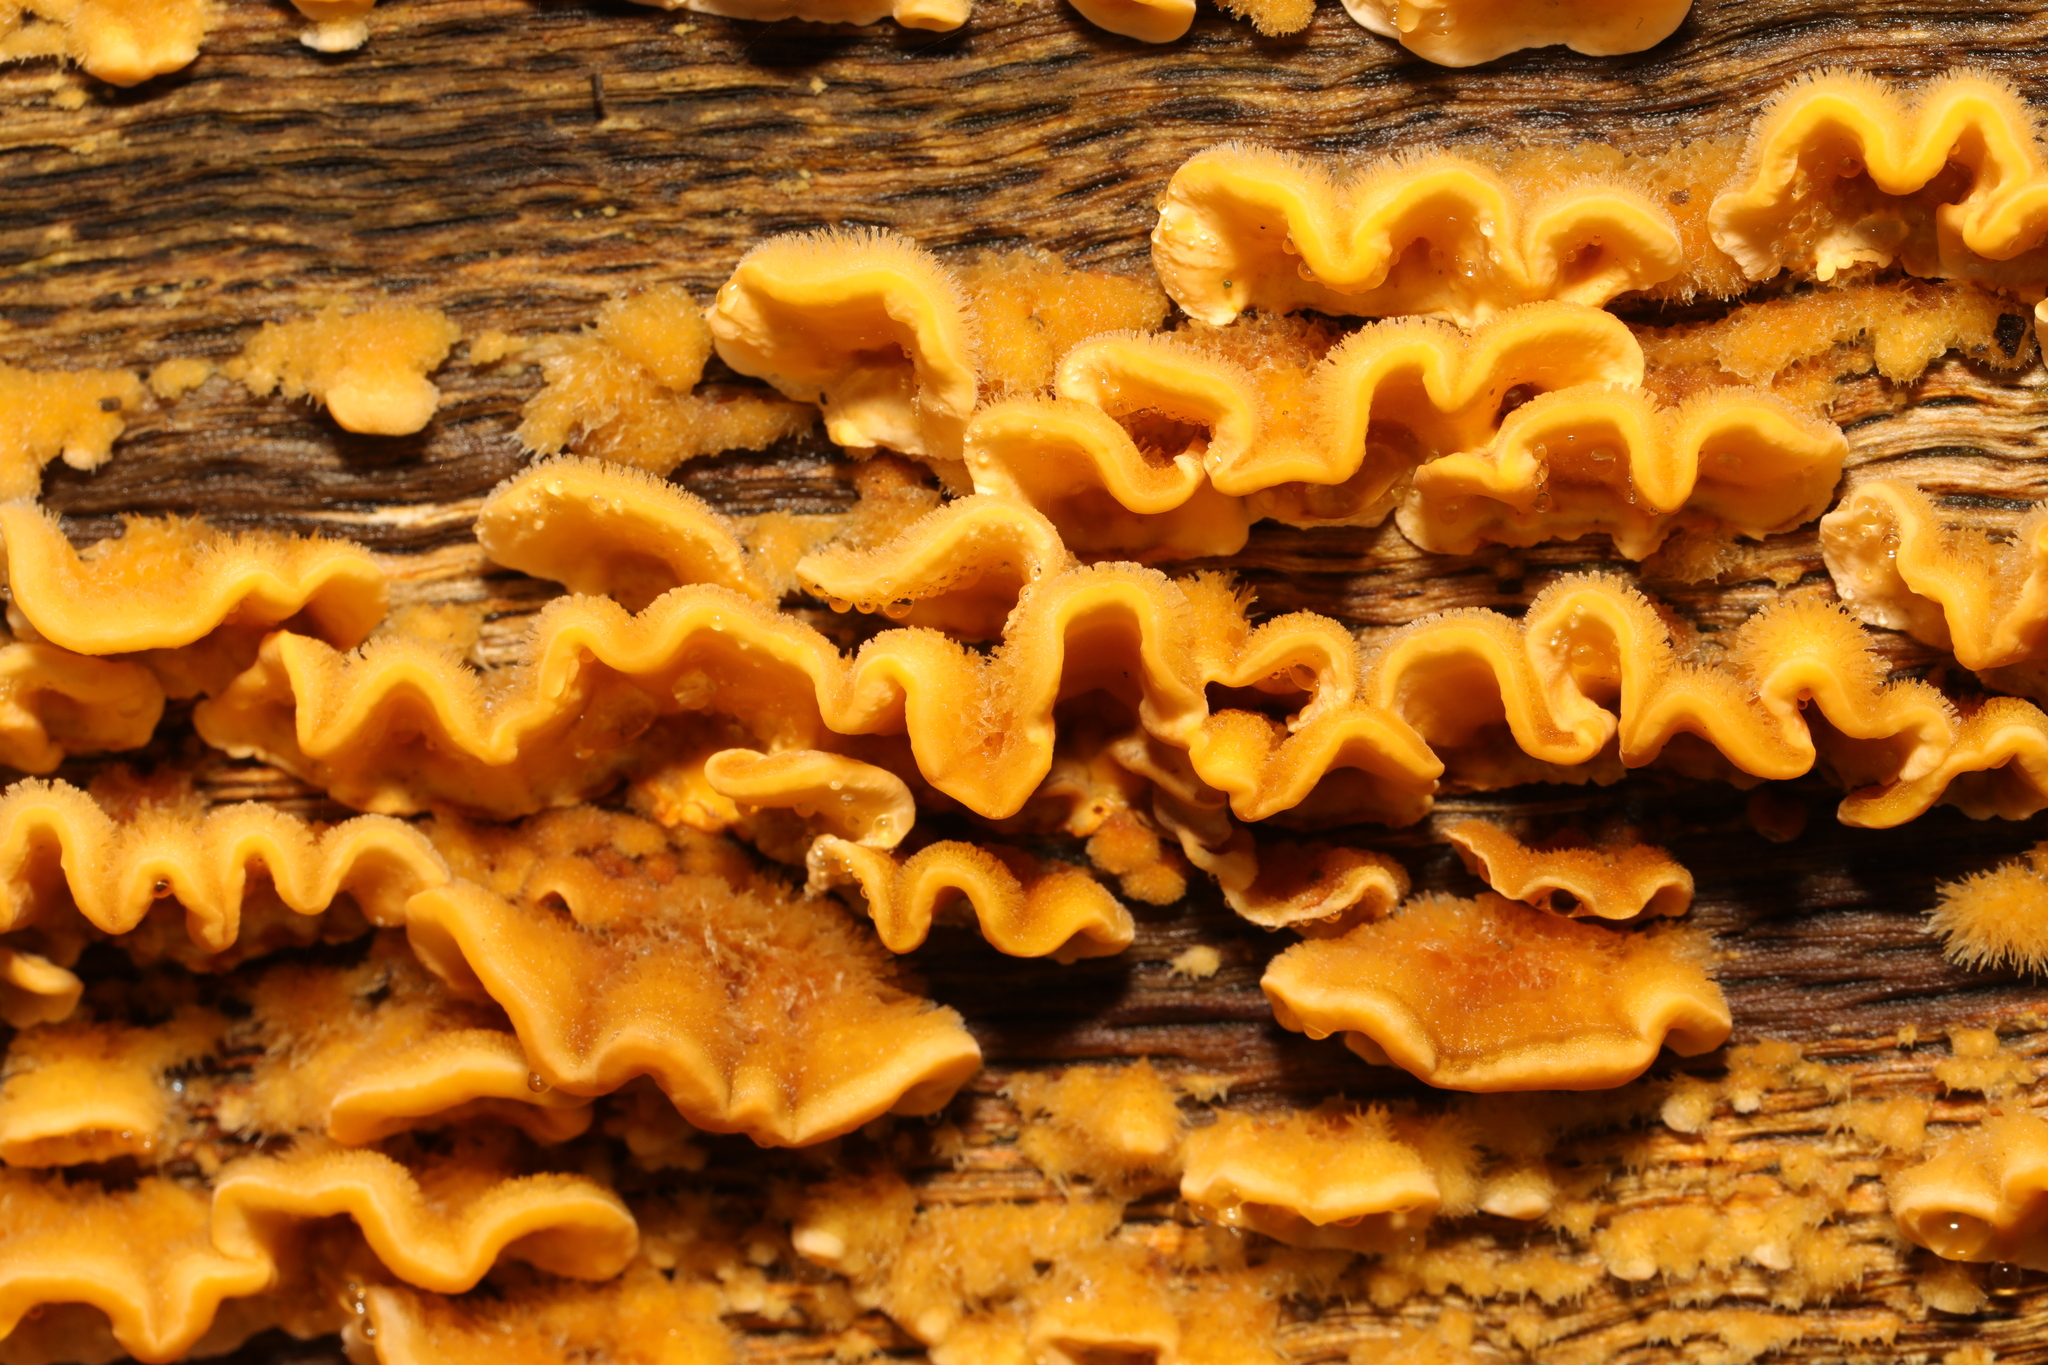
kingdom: Fungi
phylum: Basidiomycota
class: Agaricomycetes
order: Russulales
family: Stereaceae
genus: Stereum
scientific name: Stereum hirsutum
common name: Hairy curtain crust
